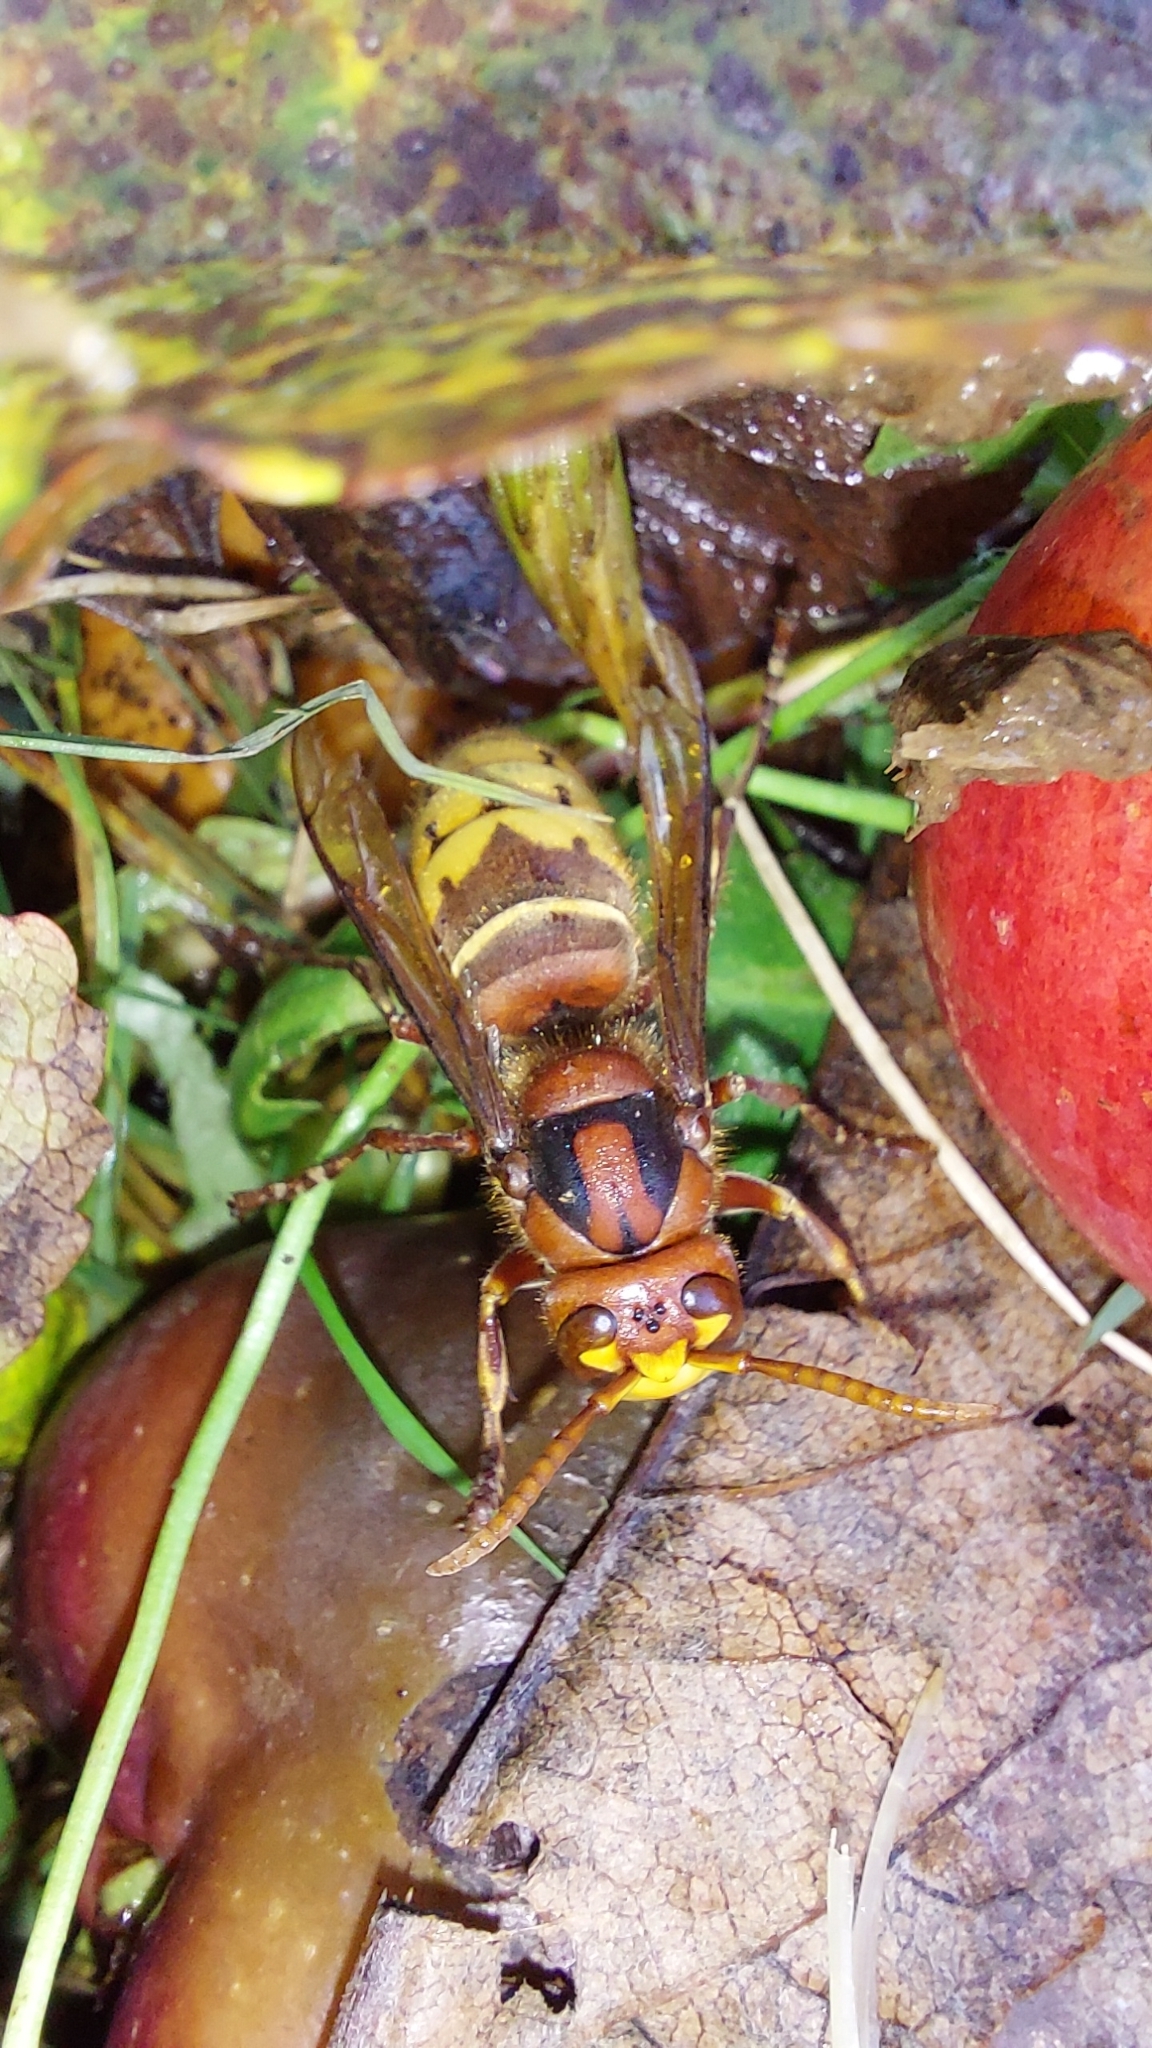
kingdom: Animalia
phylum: Arthropoda
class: Insecta
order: Hymenoptera
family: Vespidae
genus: Vespa
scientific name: Vespa crabro
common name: Hornet
